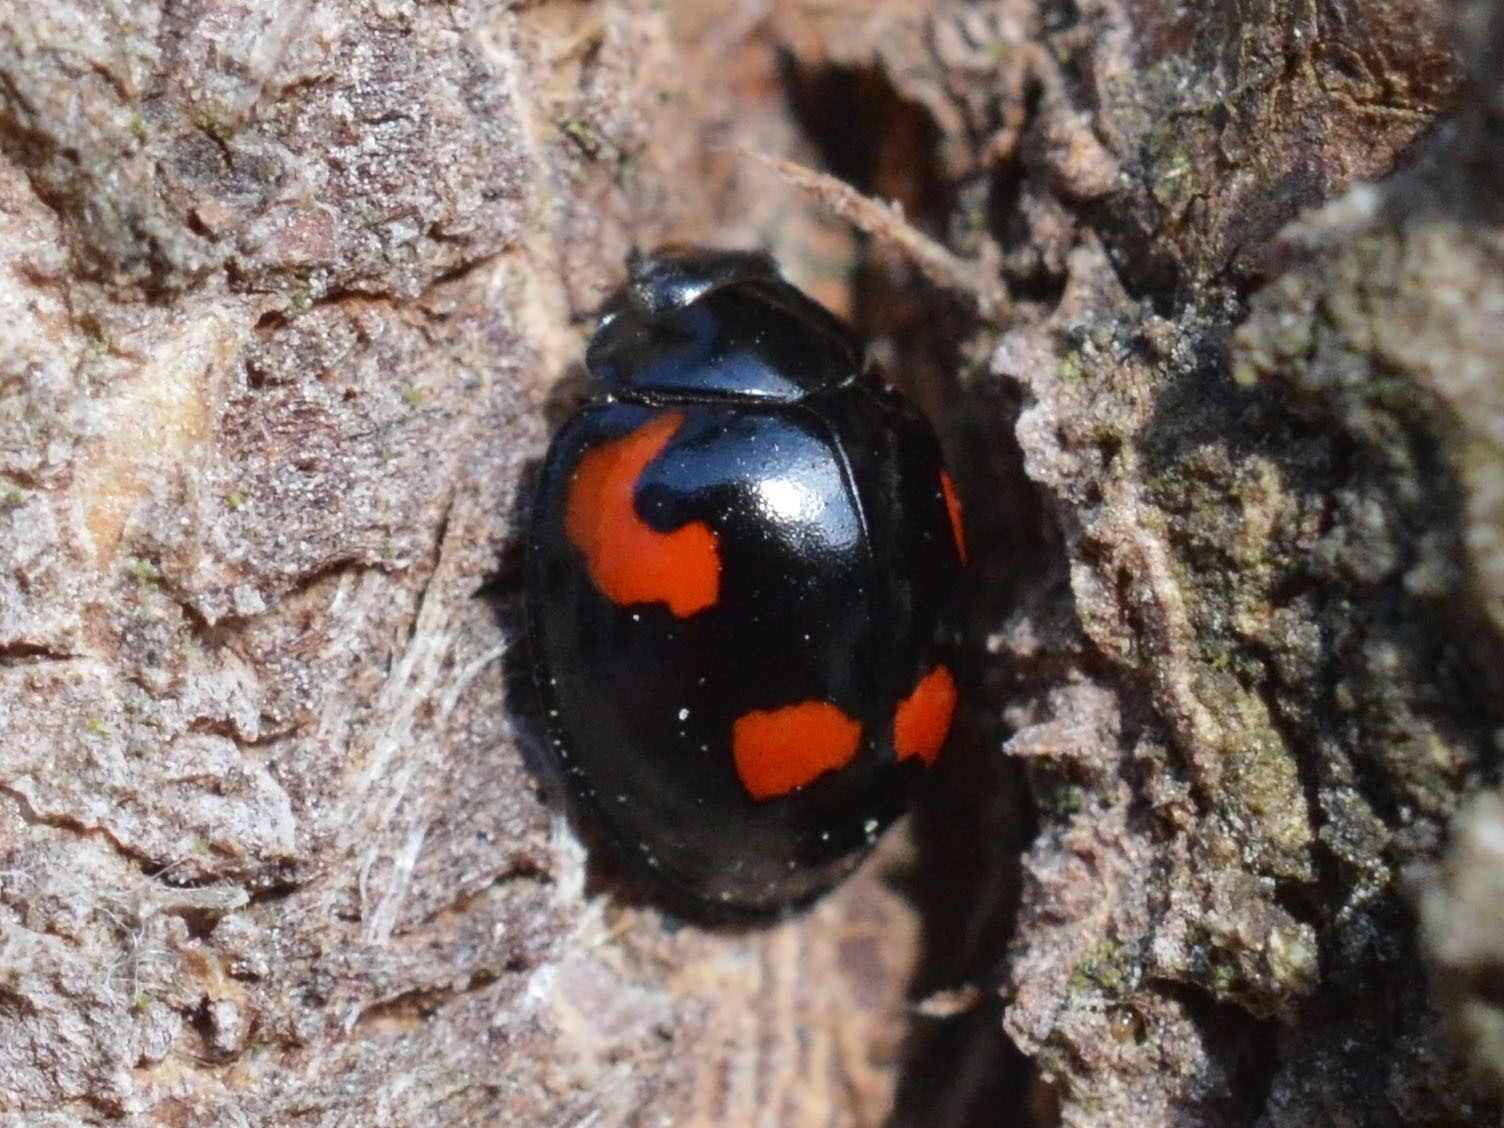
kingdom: Animalia
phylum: Arthropoda
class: Insecta
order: Coleoptera
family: Coccinellidae
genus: Brumus
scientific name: Brumus quadripustulatus
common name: Ladybird beetle
